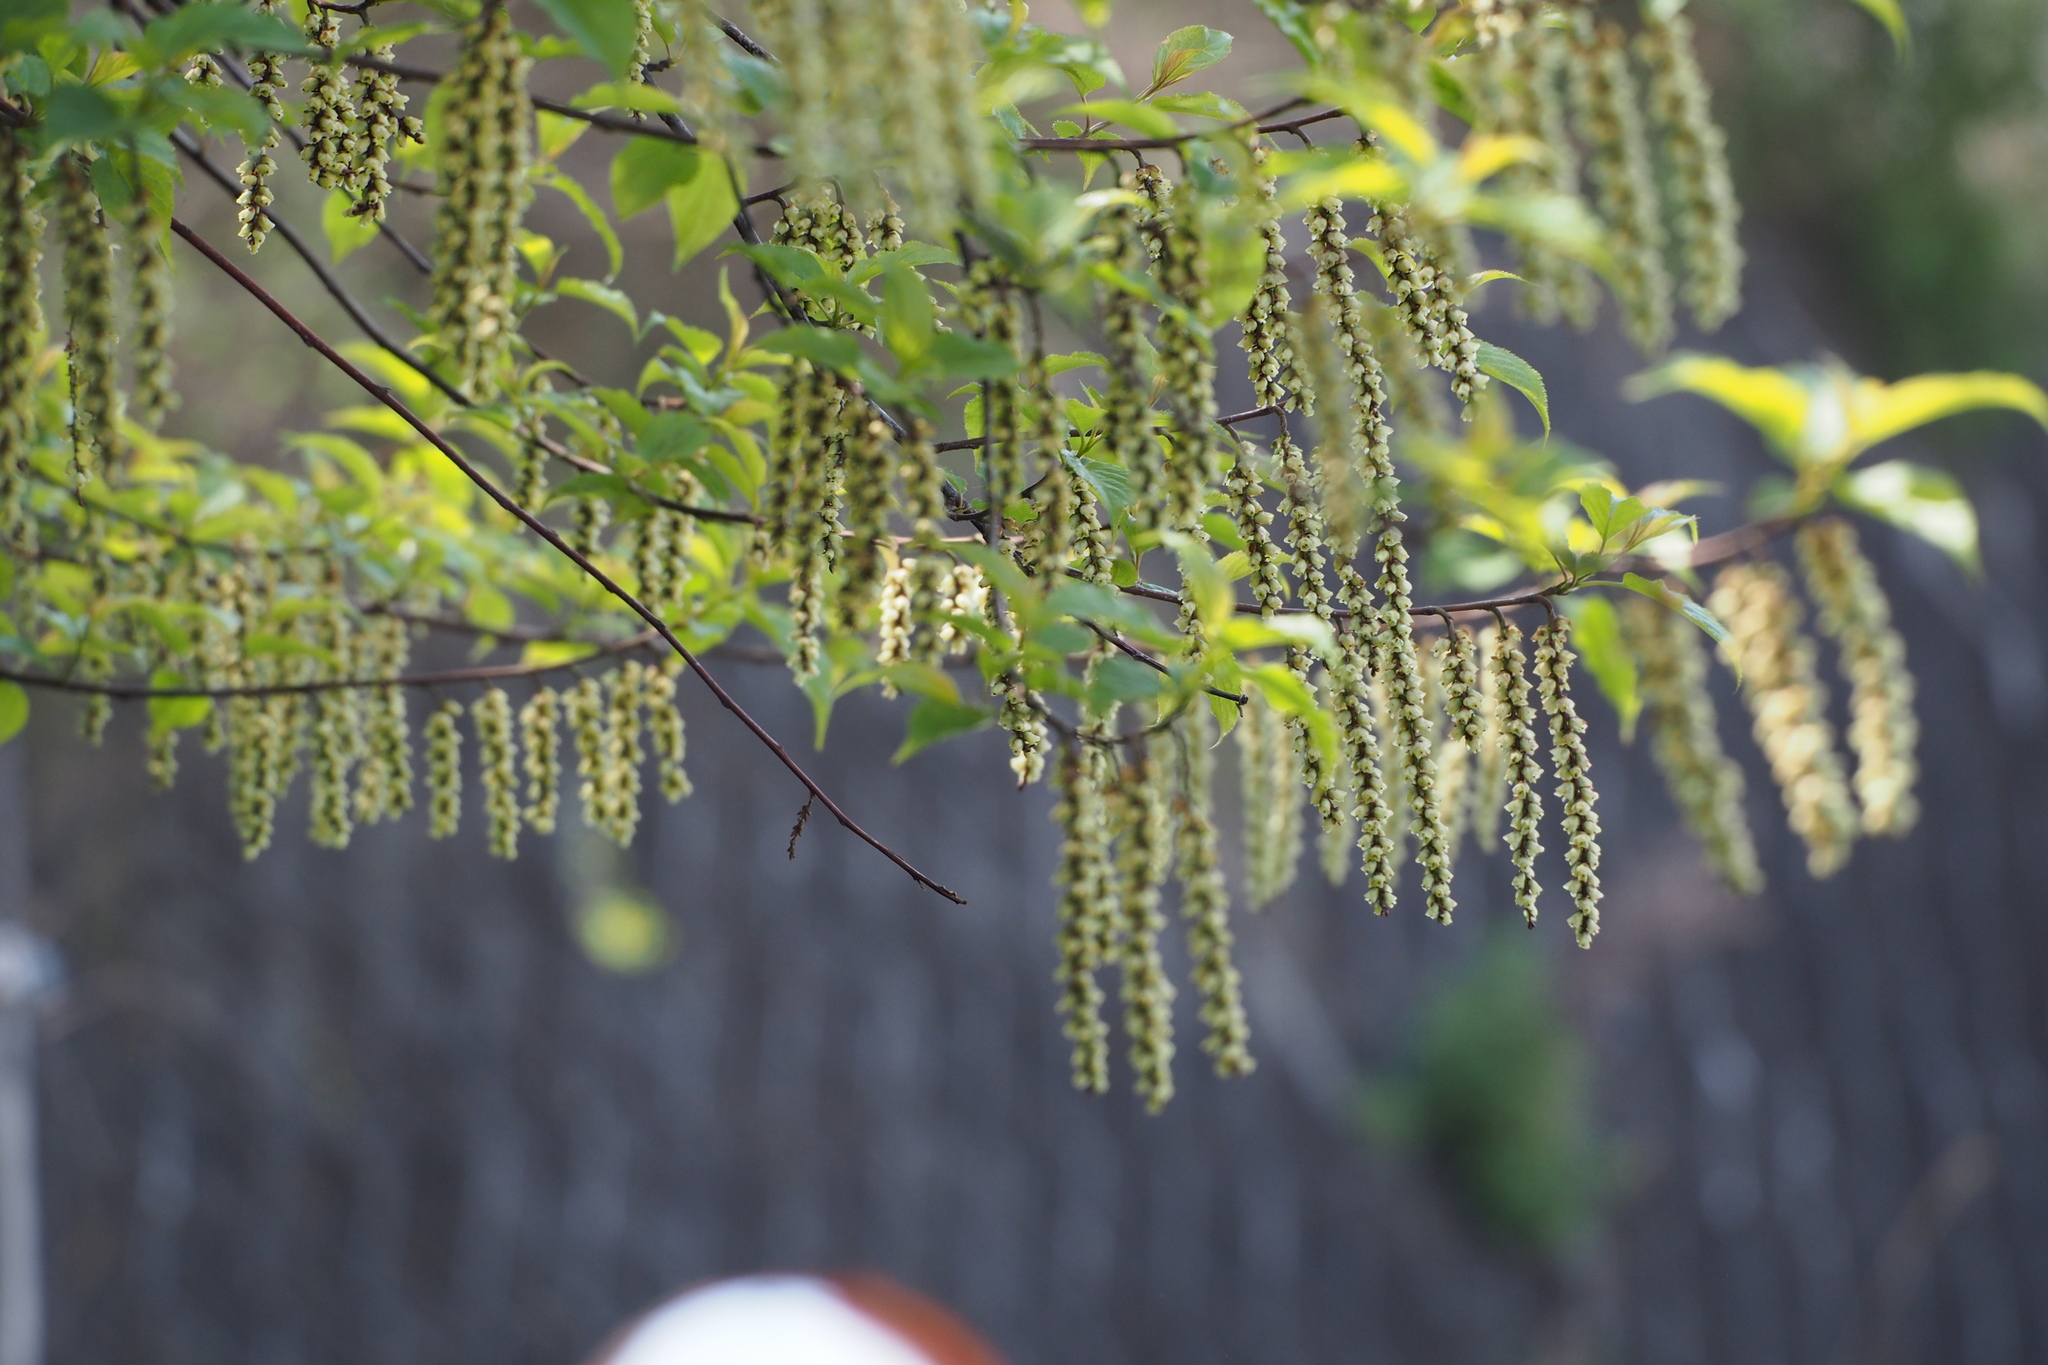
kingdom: Plantae
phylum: Tracheophyta
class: Magnoliopsida
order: Crossosomatales
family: Stachyuraceae
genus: Stachyurus
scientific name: Stachyurus praecox
